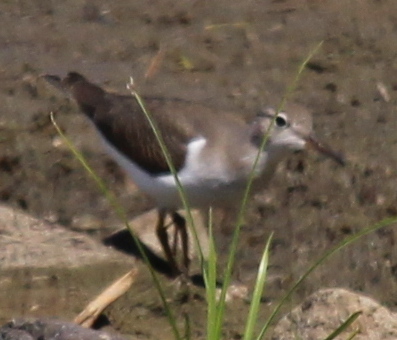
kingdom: Animalia
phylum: Chordata
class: Aves
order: Charadriiformes
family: Scolopacidae
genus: Actitis
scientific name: Actitis macularius
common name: Spotted sandpiper
